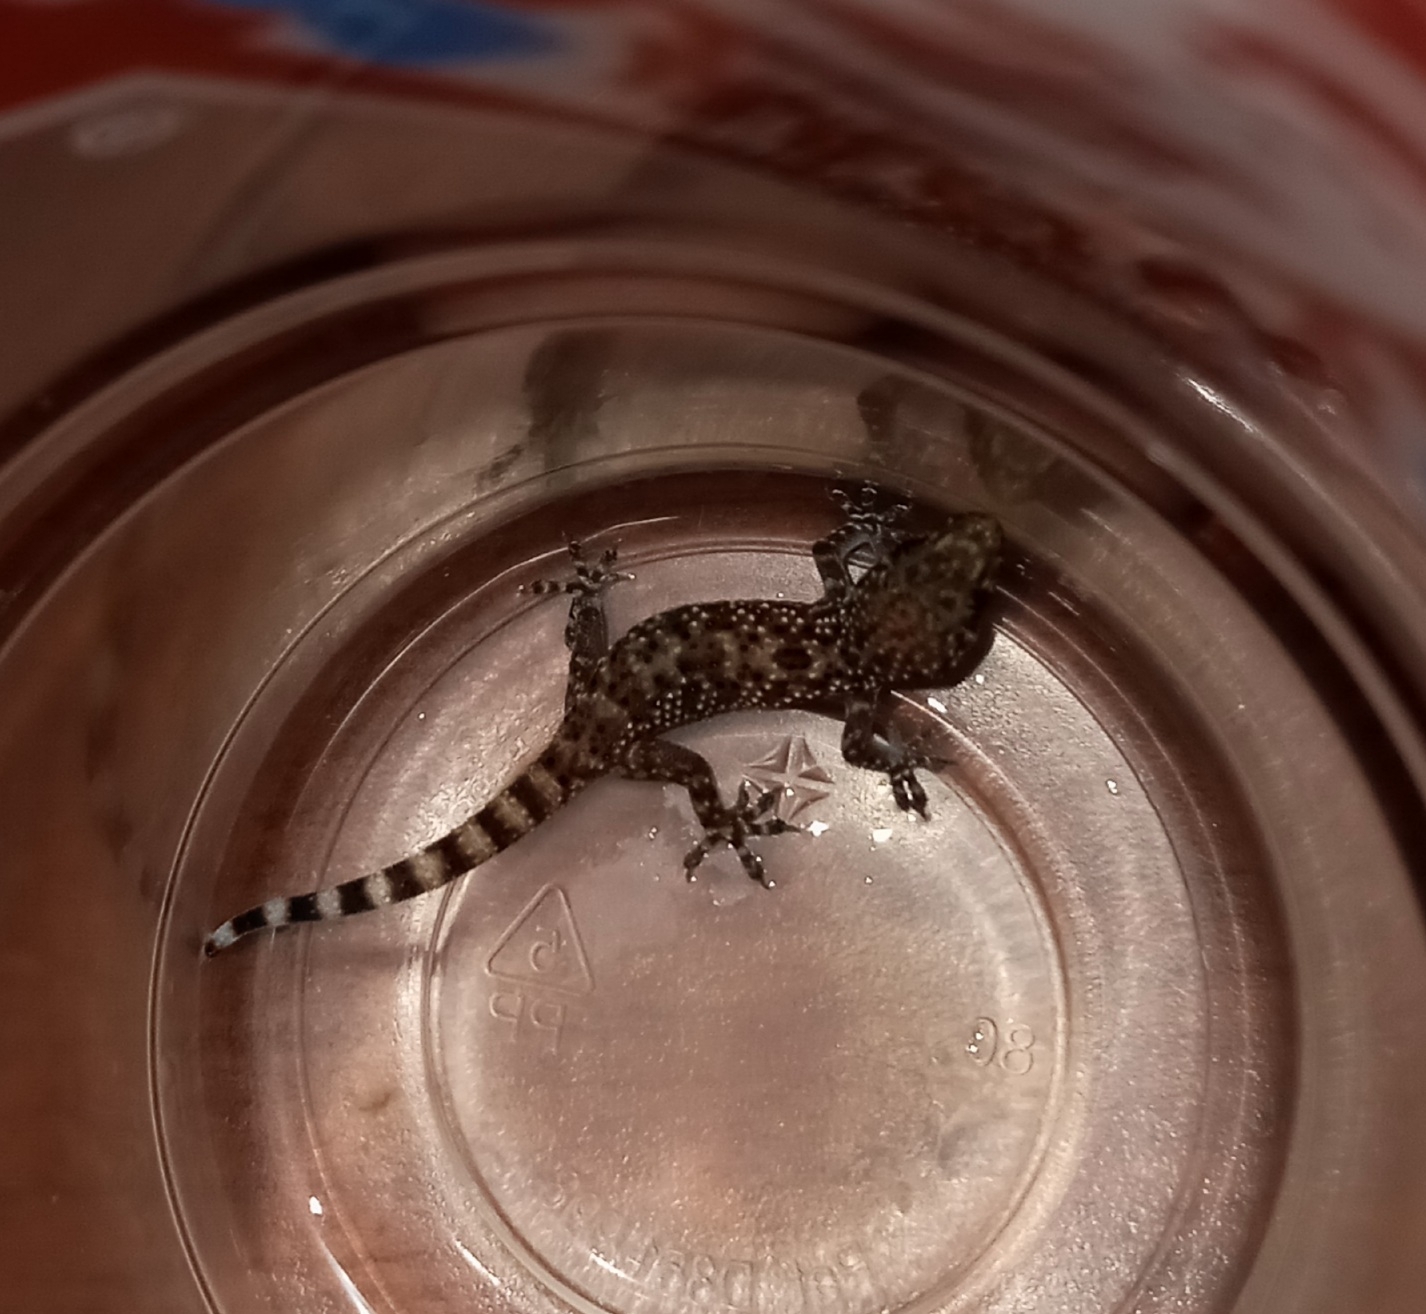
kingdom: Animalia
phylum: Chordata
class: Squamata
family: Gekkonidae
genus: Hemidactylus
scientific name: Hemidactylus turcicus
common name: Turkish gecko
